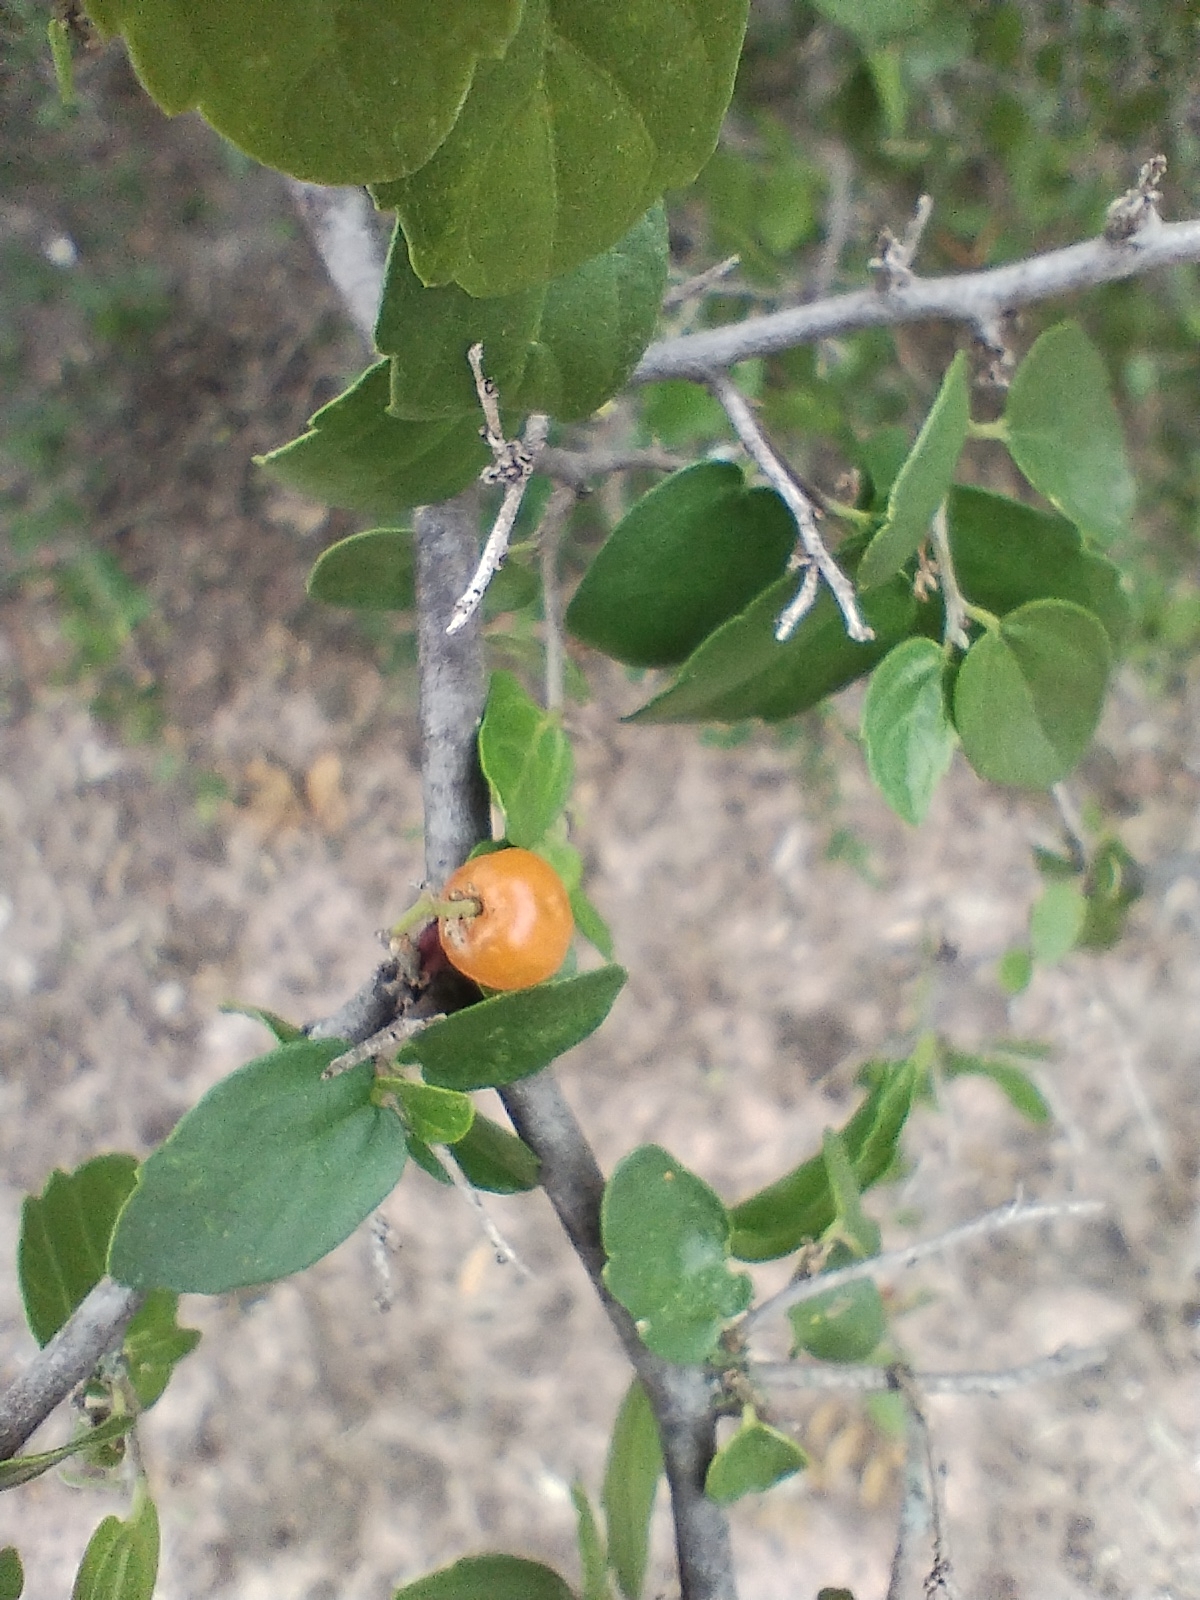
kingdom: Plantae
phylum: Tracheophyta
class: Magnoliopsida
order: Rosales
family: Cannabaceae
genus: Celtis
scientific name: Celtis pallida
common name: Desert hackberry
